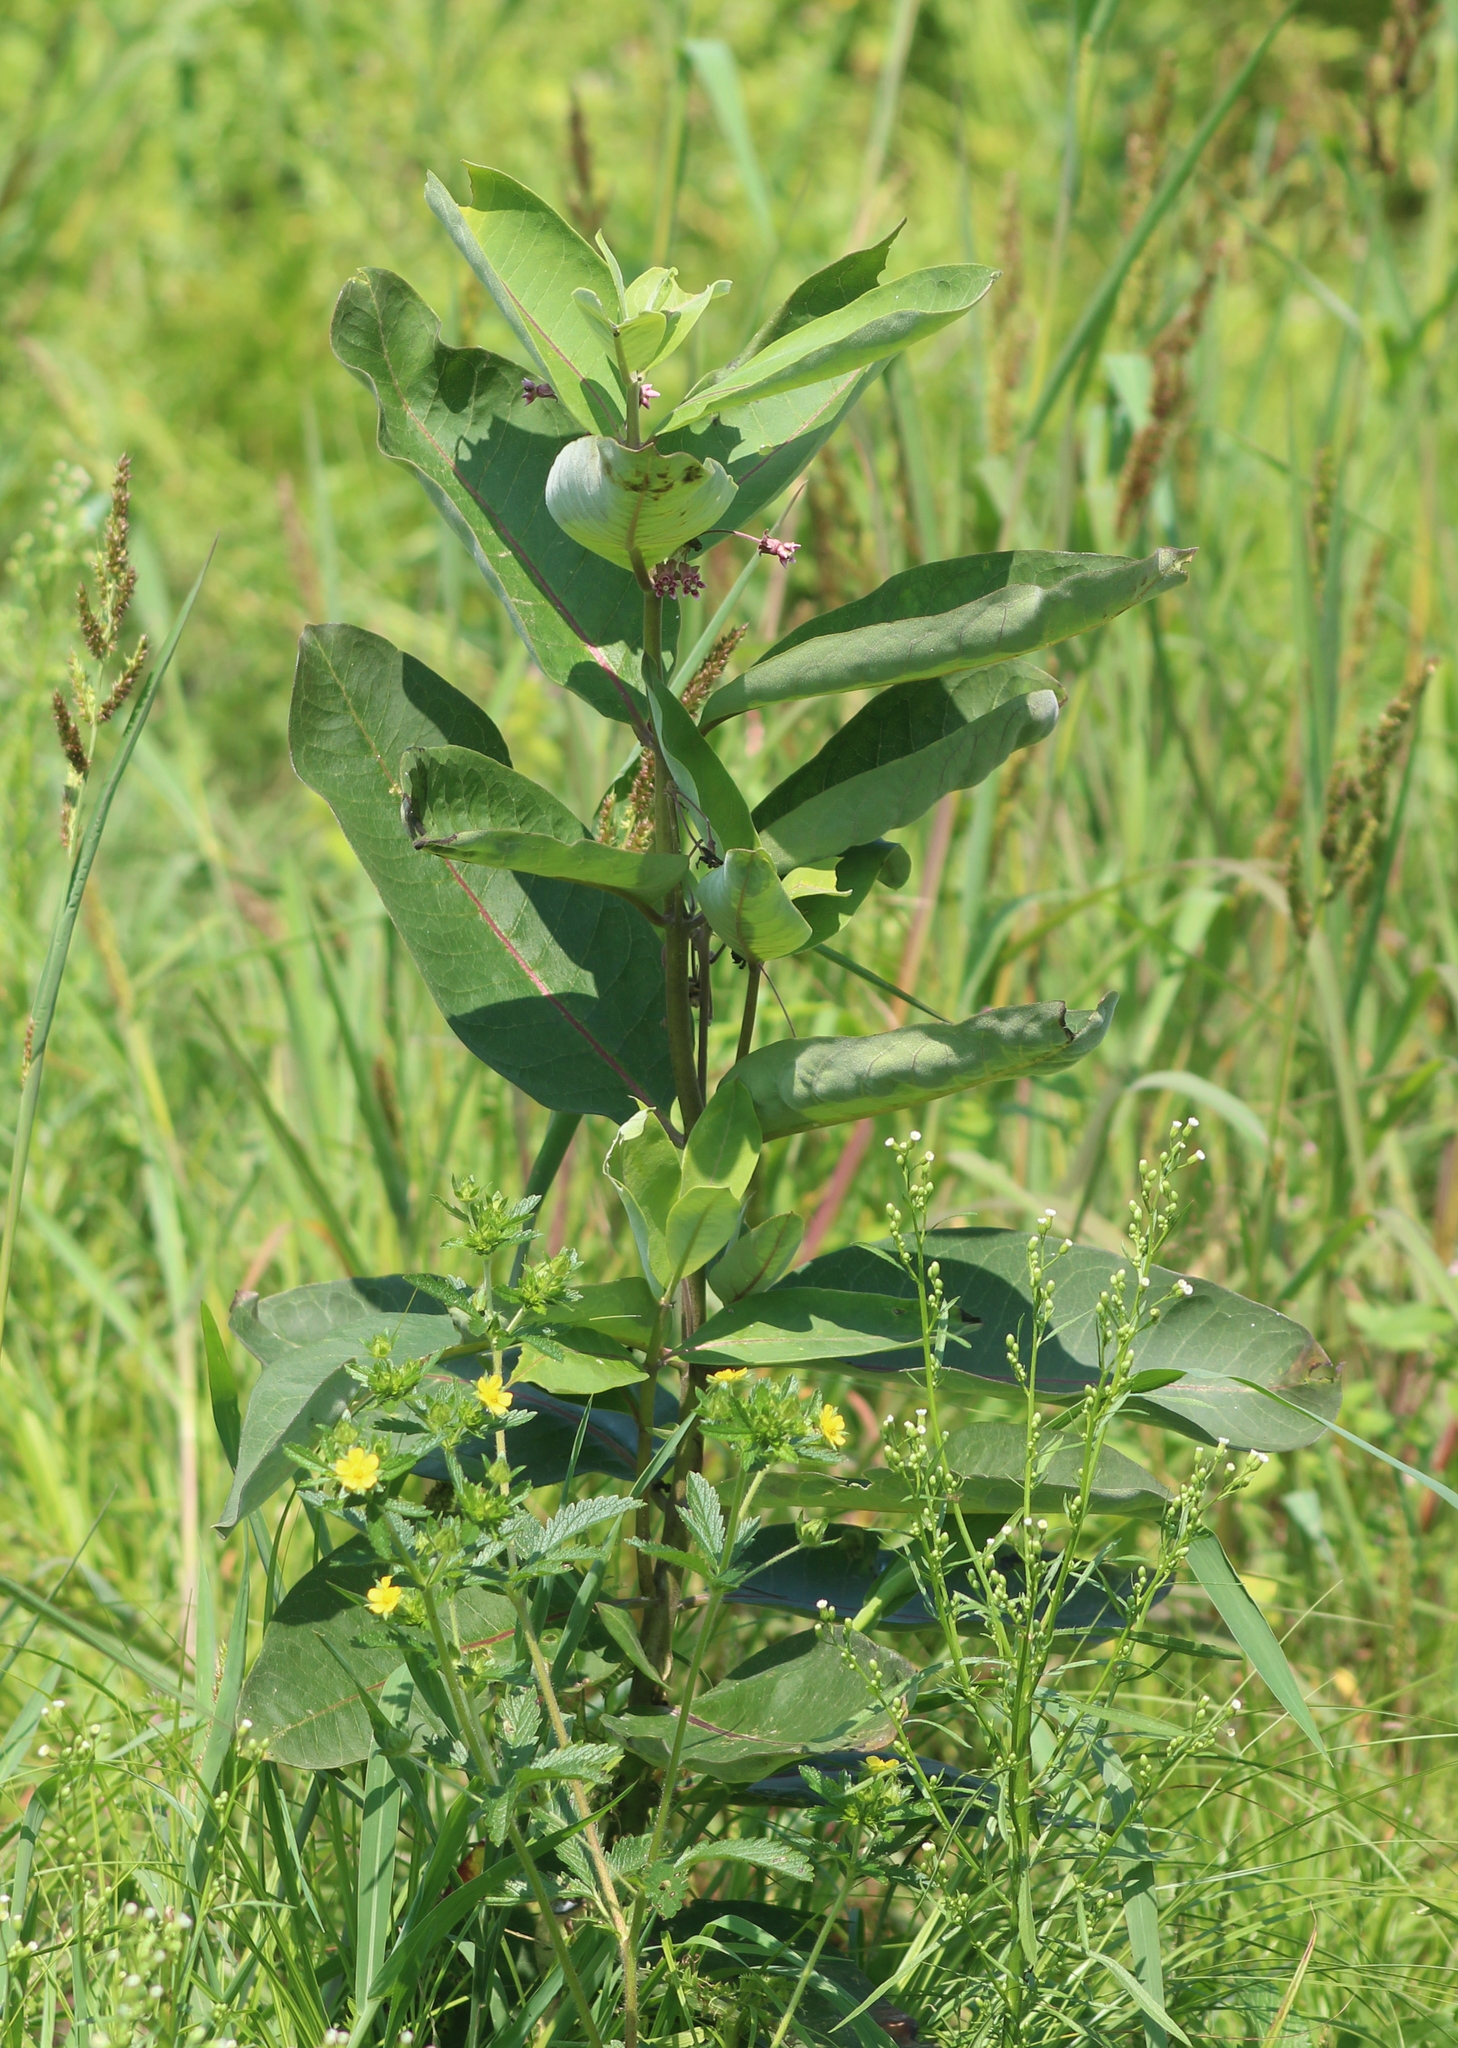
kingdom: Plantae
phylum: Tracheophyta
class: Magnoliopsida
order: Gentianales
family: Apocynaceae
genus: Asclepias
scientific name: Asclepias syriaca
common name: Common milkweed
